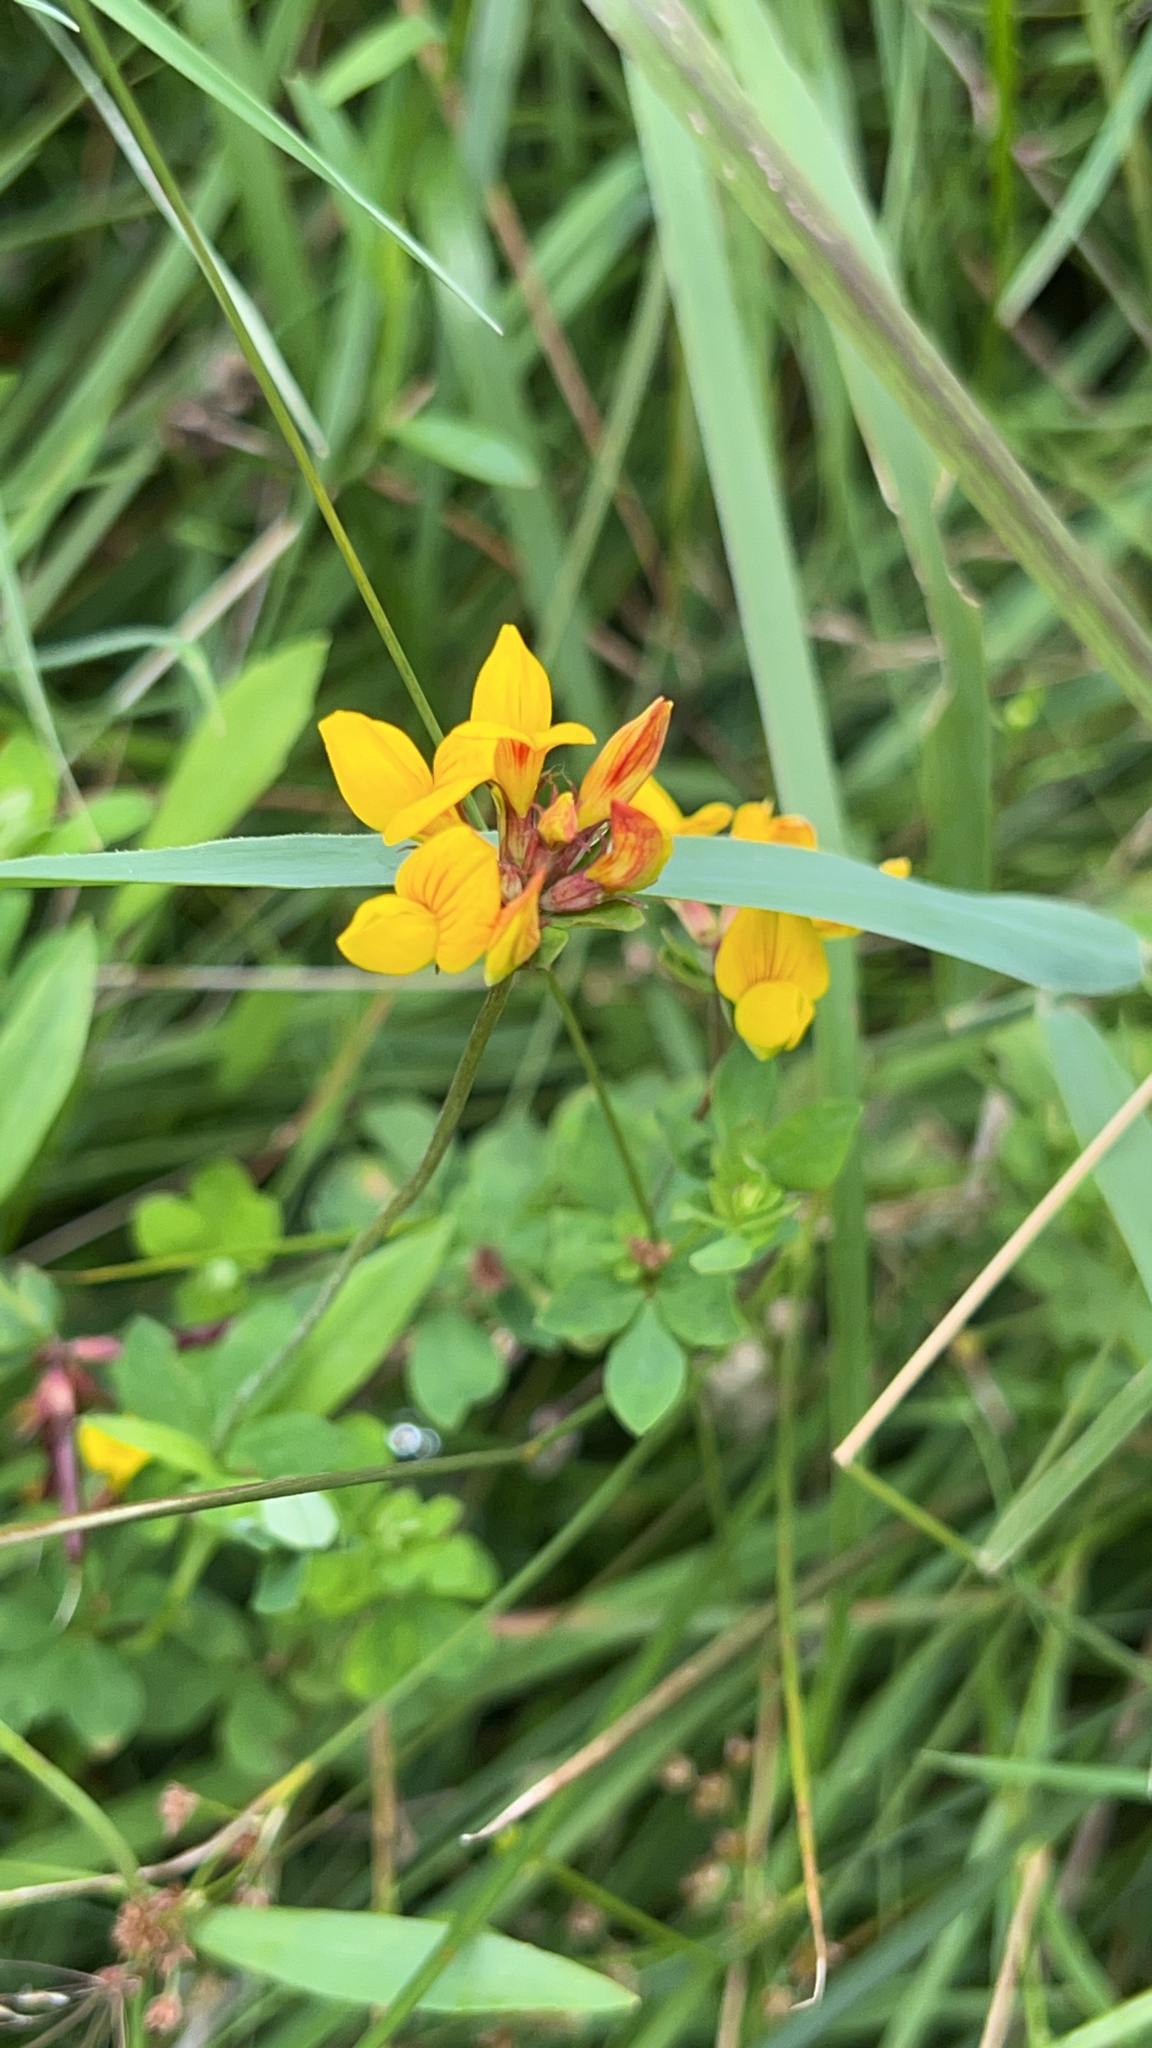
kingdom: Plantae
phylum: Tracheophyta
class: Magnoliopsida
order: Fabales
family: Fabaceae
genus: Lotus
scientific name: Lotus pedunculatus
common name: Greater birdsfoot-trefoil
